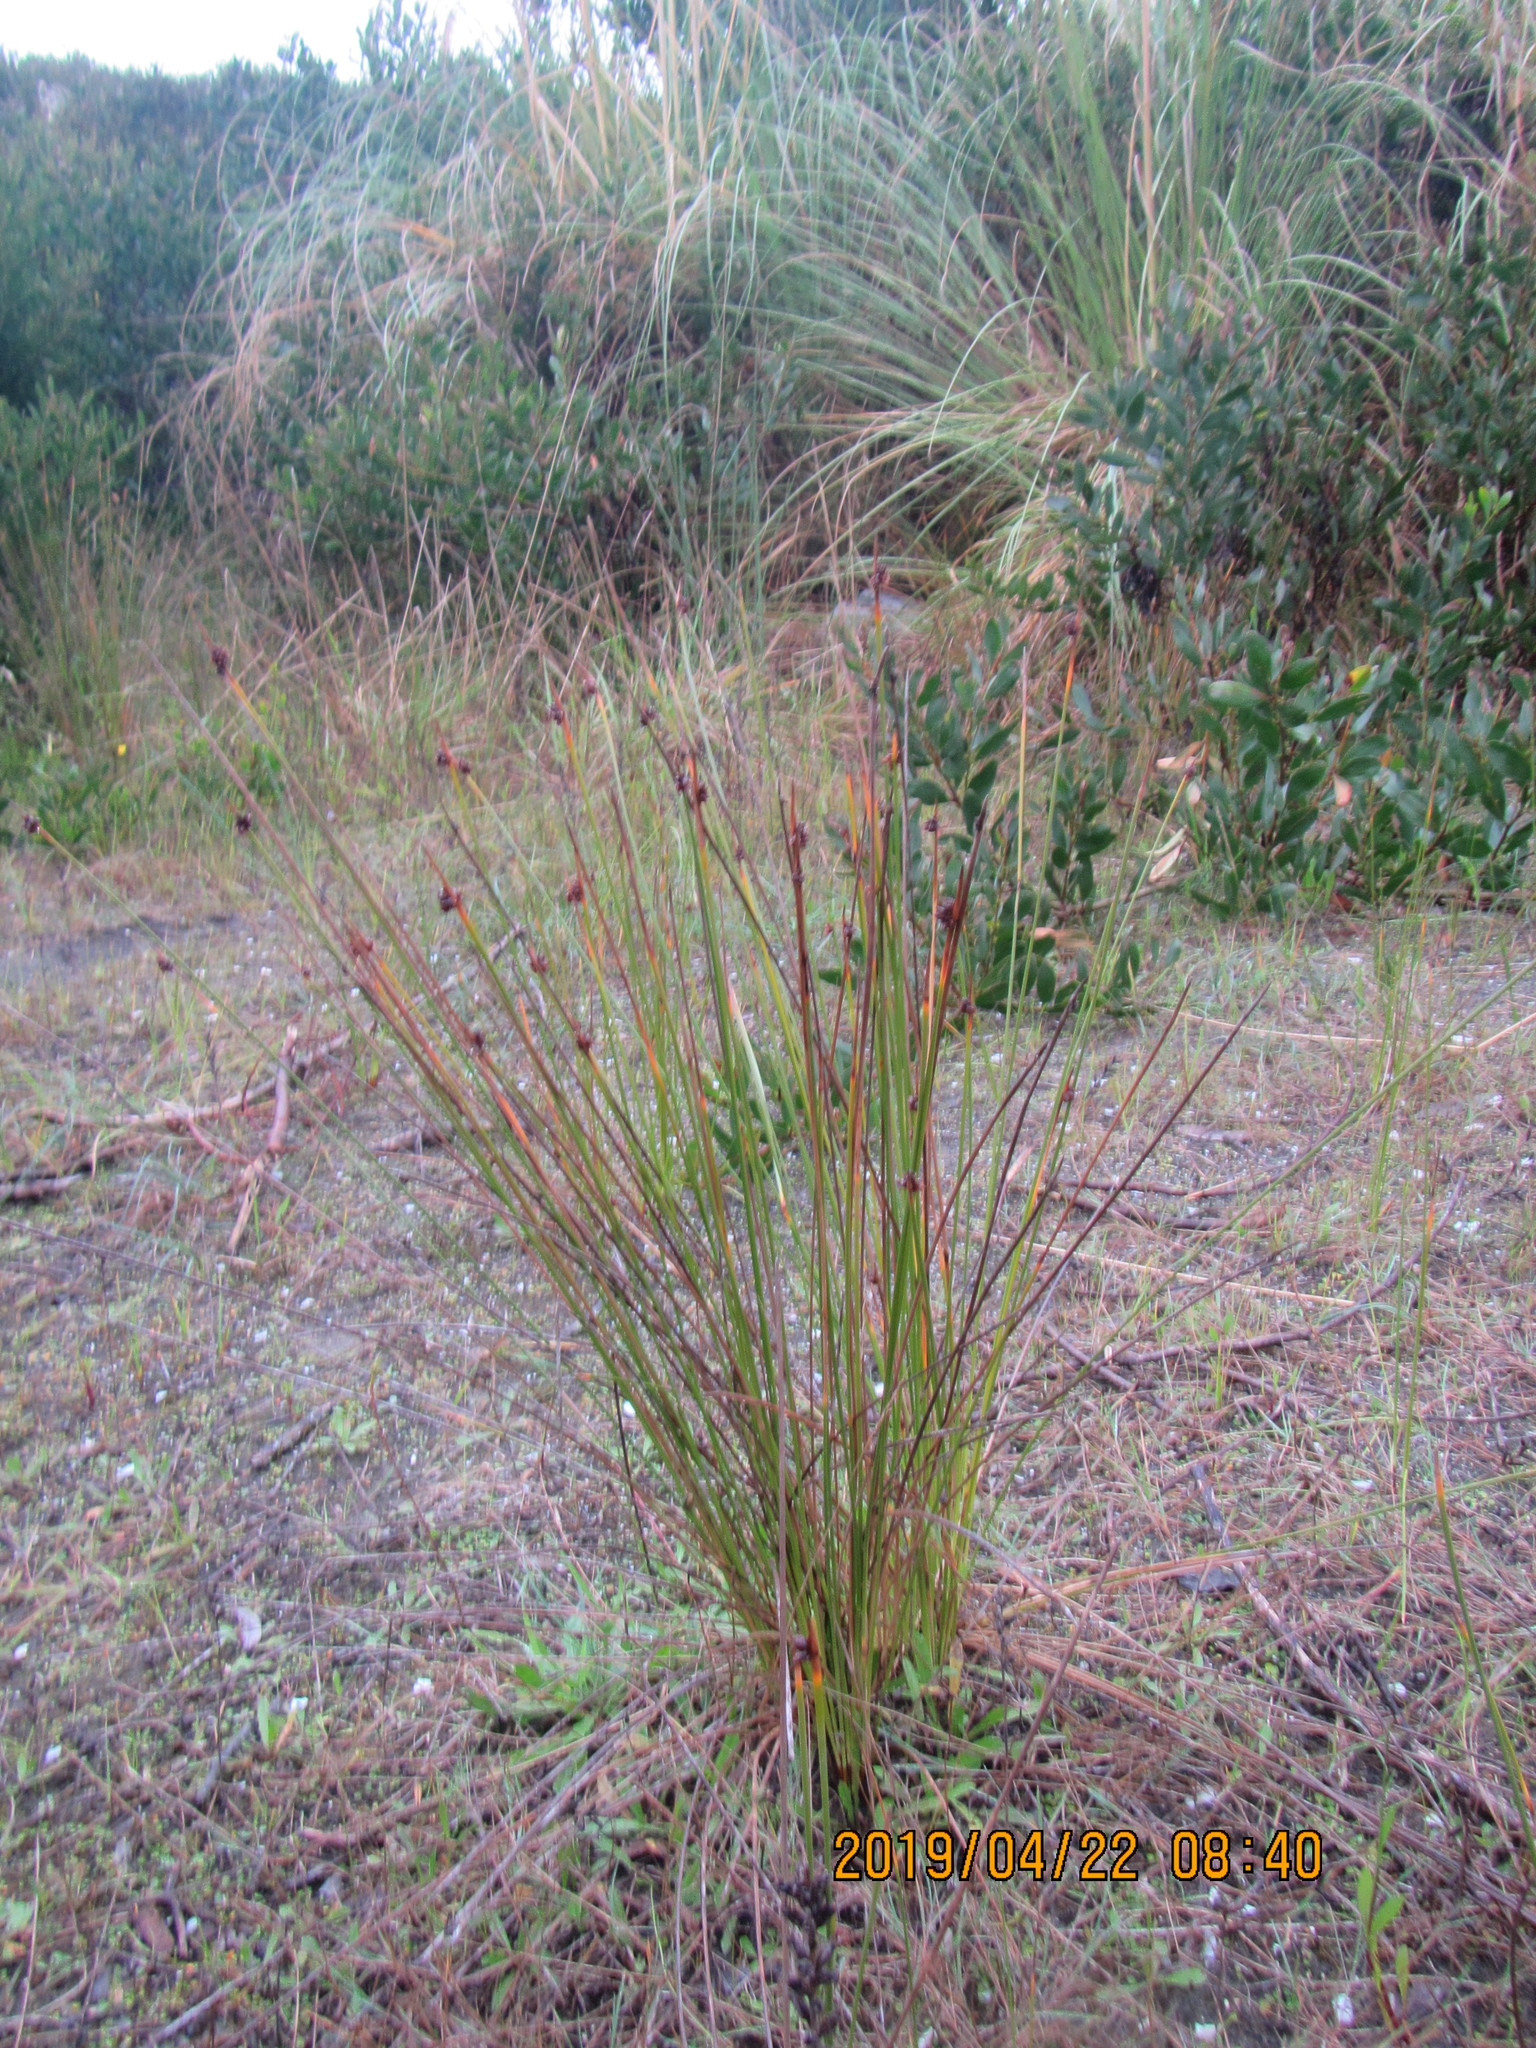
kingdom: Plantae
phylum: Tracheophyta
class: Liliopsida
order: Poales
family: Cyperaceae
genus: Ficinia
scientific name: Ficinia nodosa
